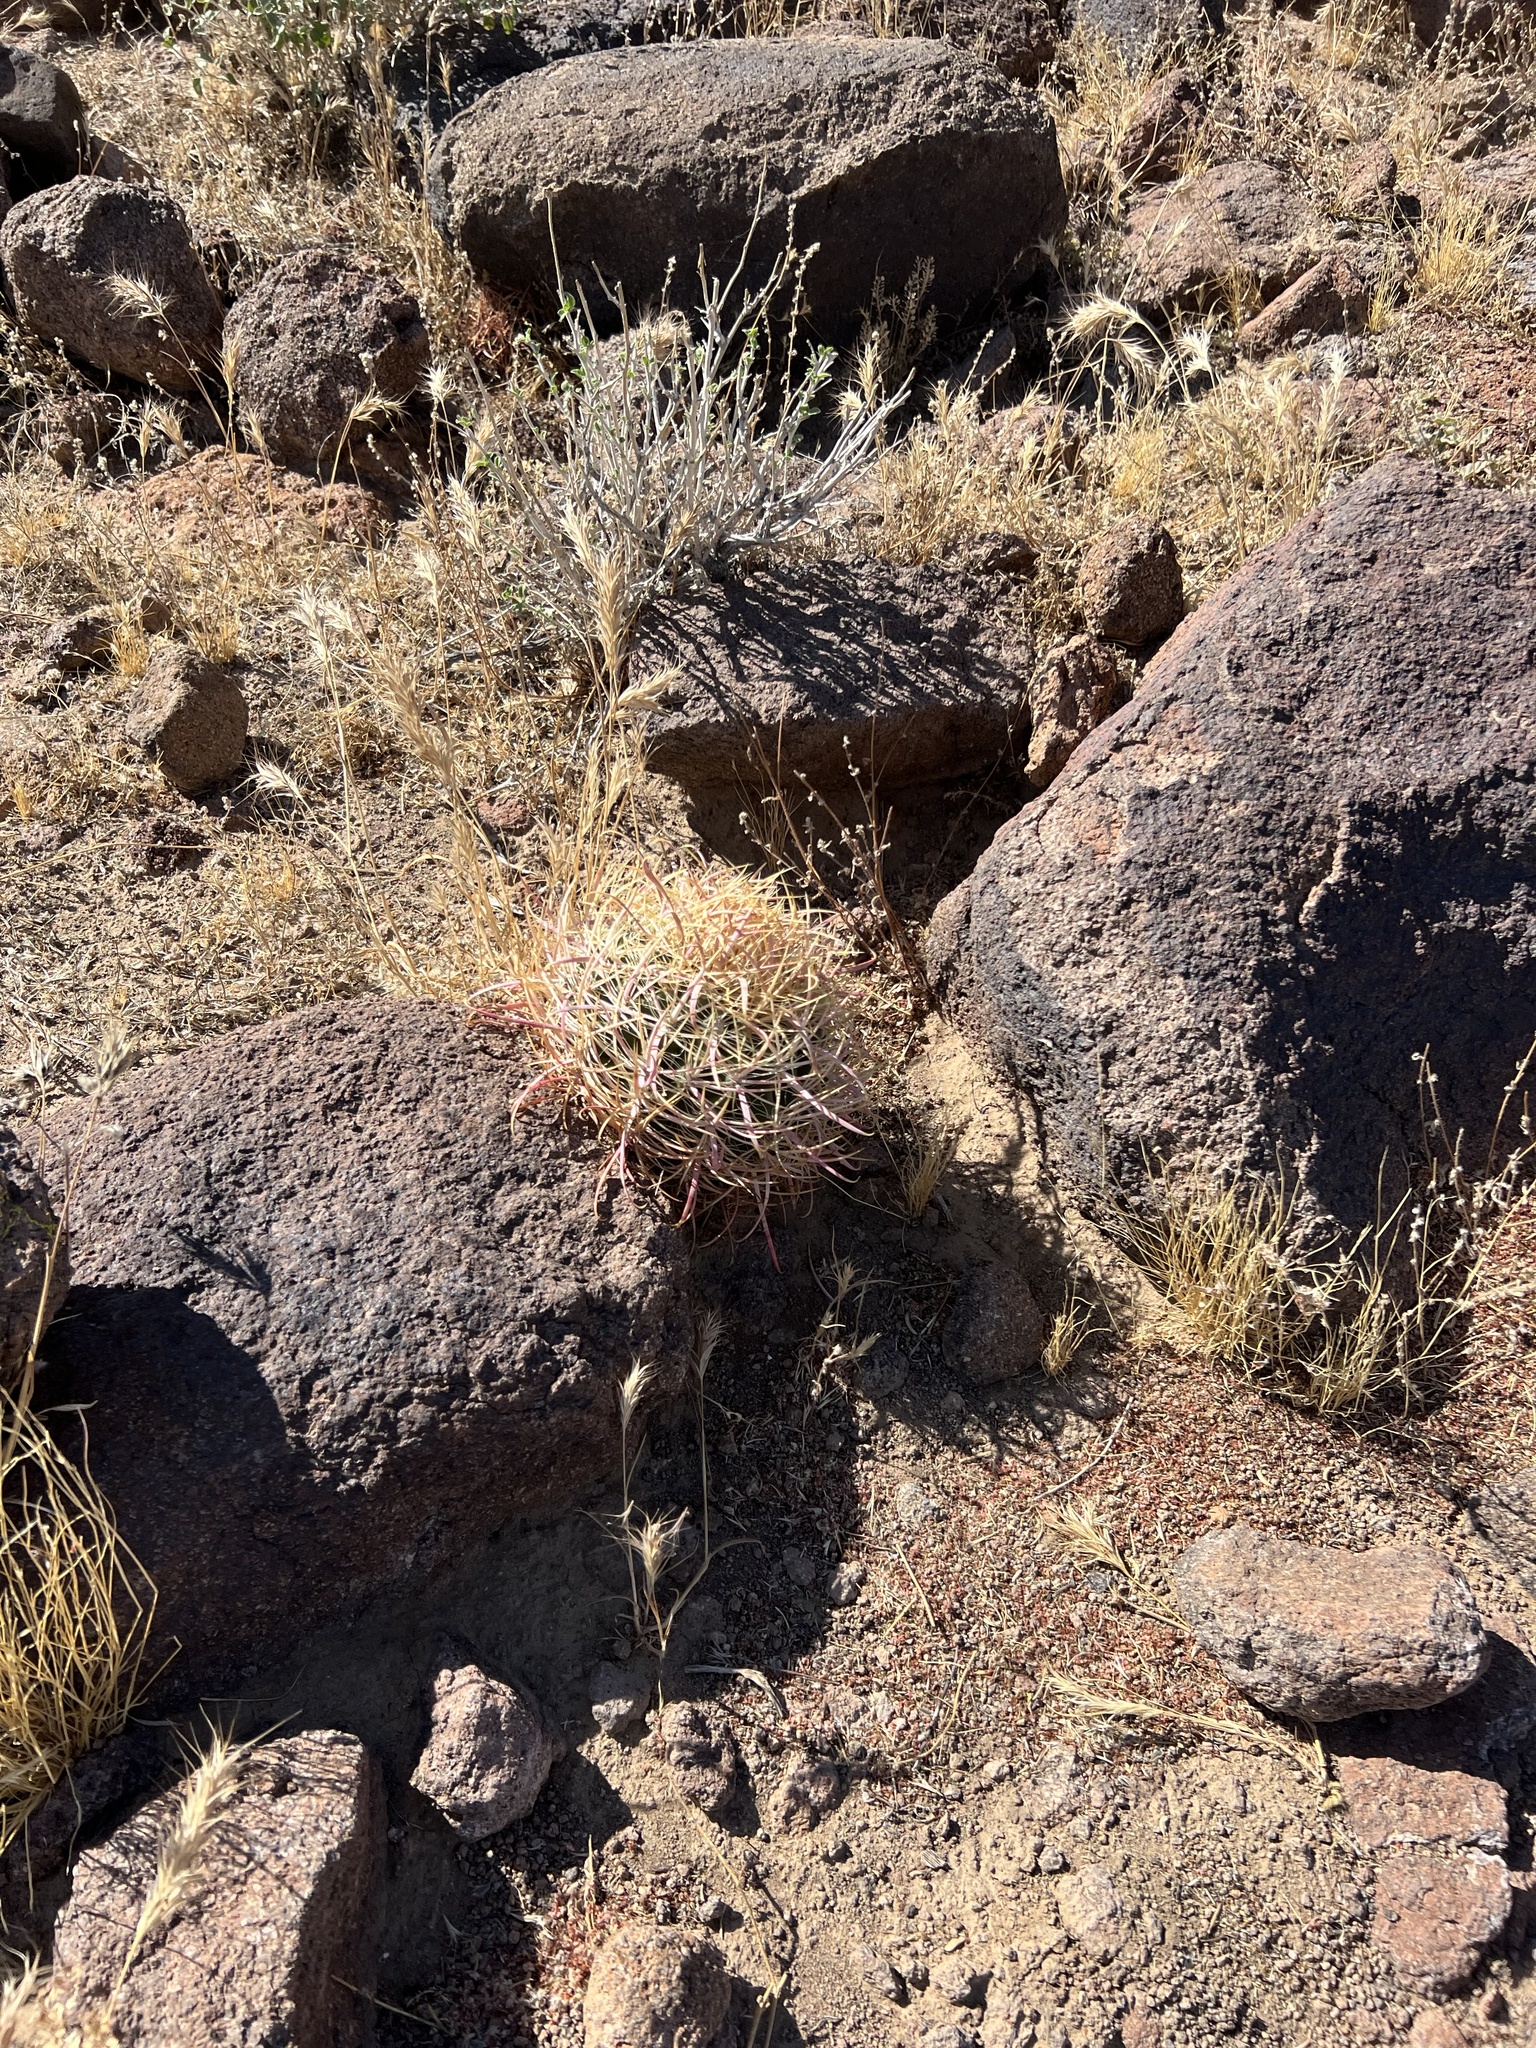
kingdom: Plantae
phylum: Tracheophyta
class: Magnoliopsida
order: Caryophyllales
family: Cactaceae
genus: Ferocactus
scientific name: Ferocactus cylindraceus
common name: California barrel cactus
